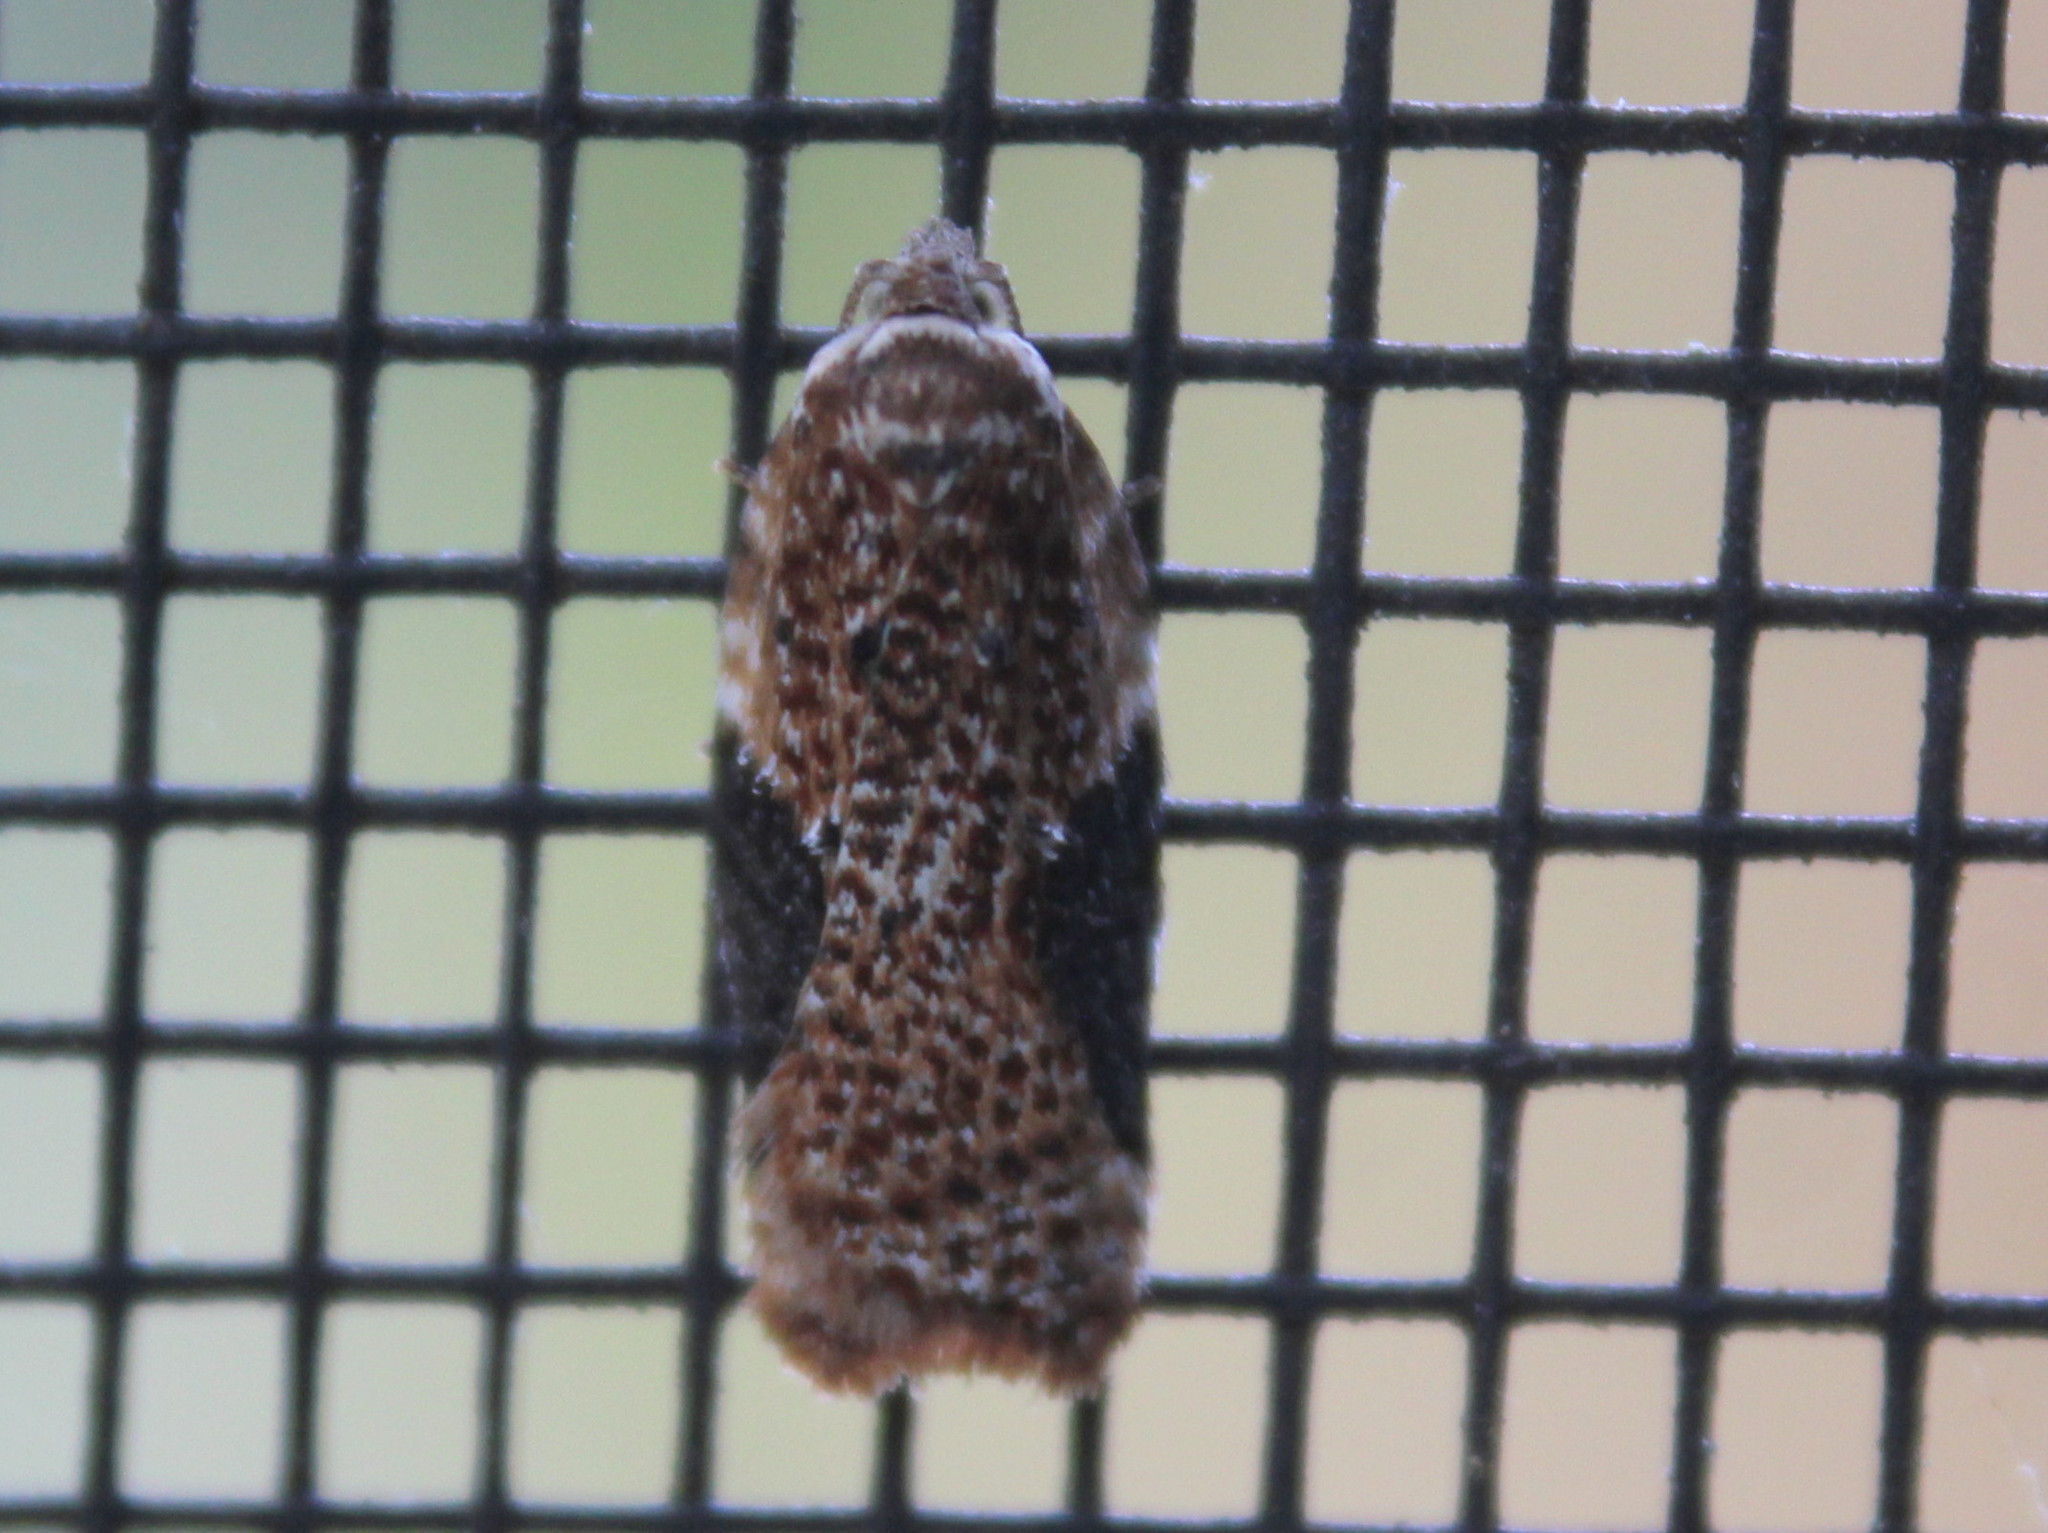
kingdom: Animalia
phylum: Arthropoda
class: Insecta
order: Lepidoptera
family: Tortricidae
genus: Acleris
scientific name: Acleris braunana
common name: Alder leafroller
